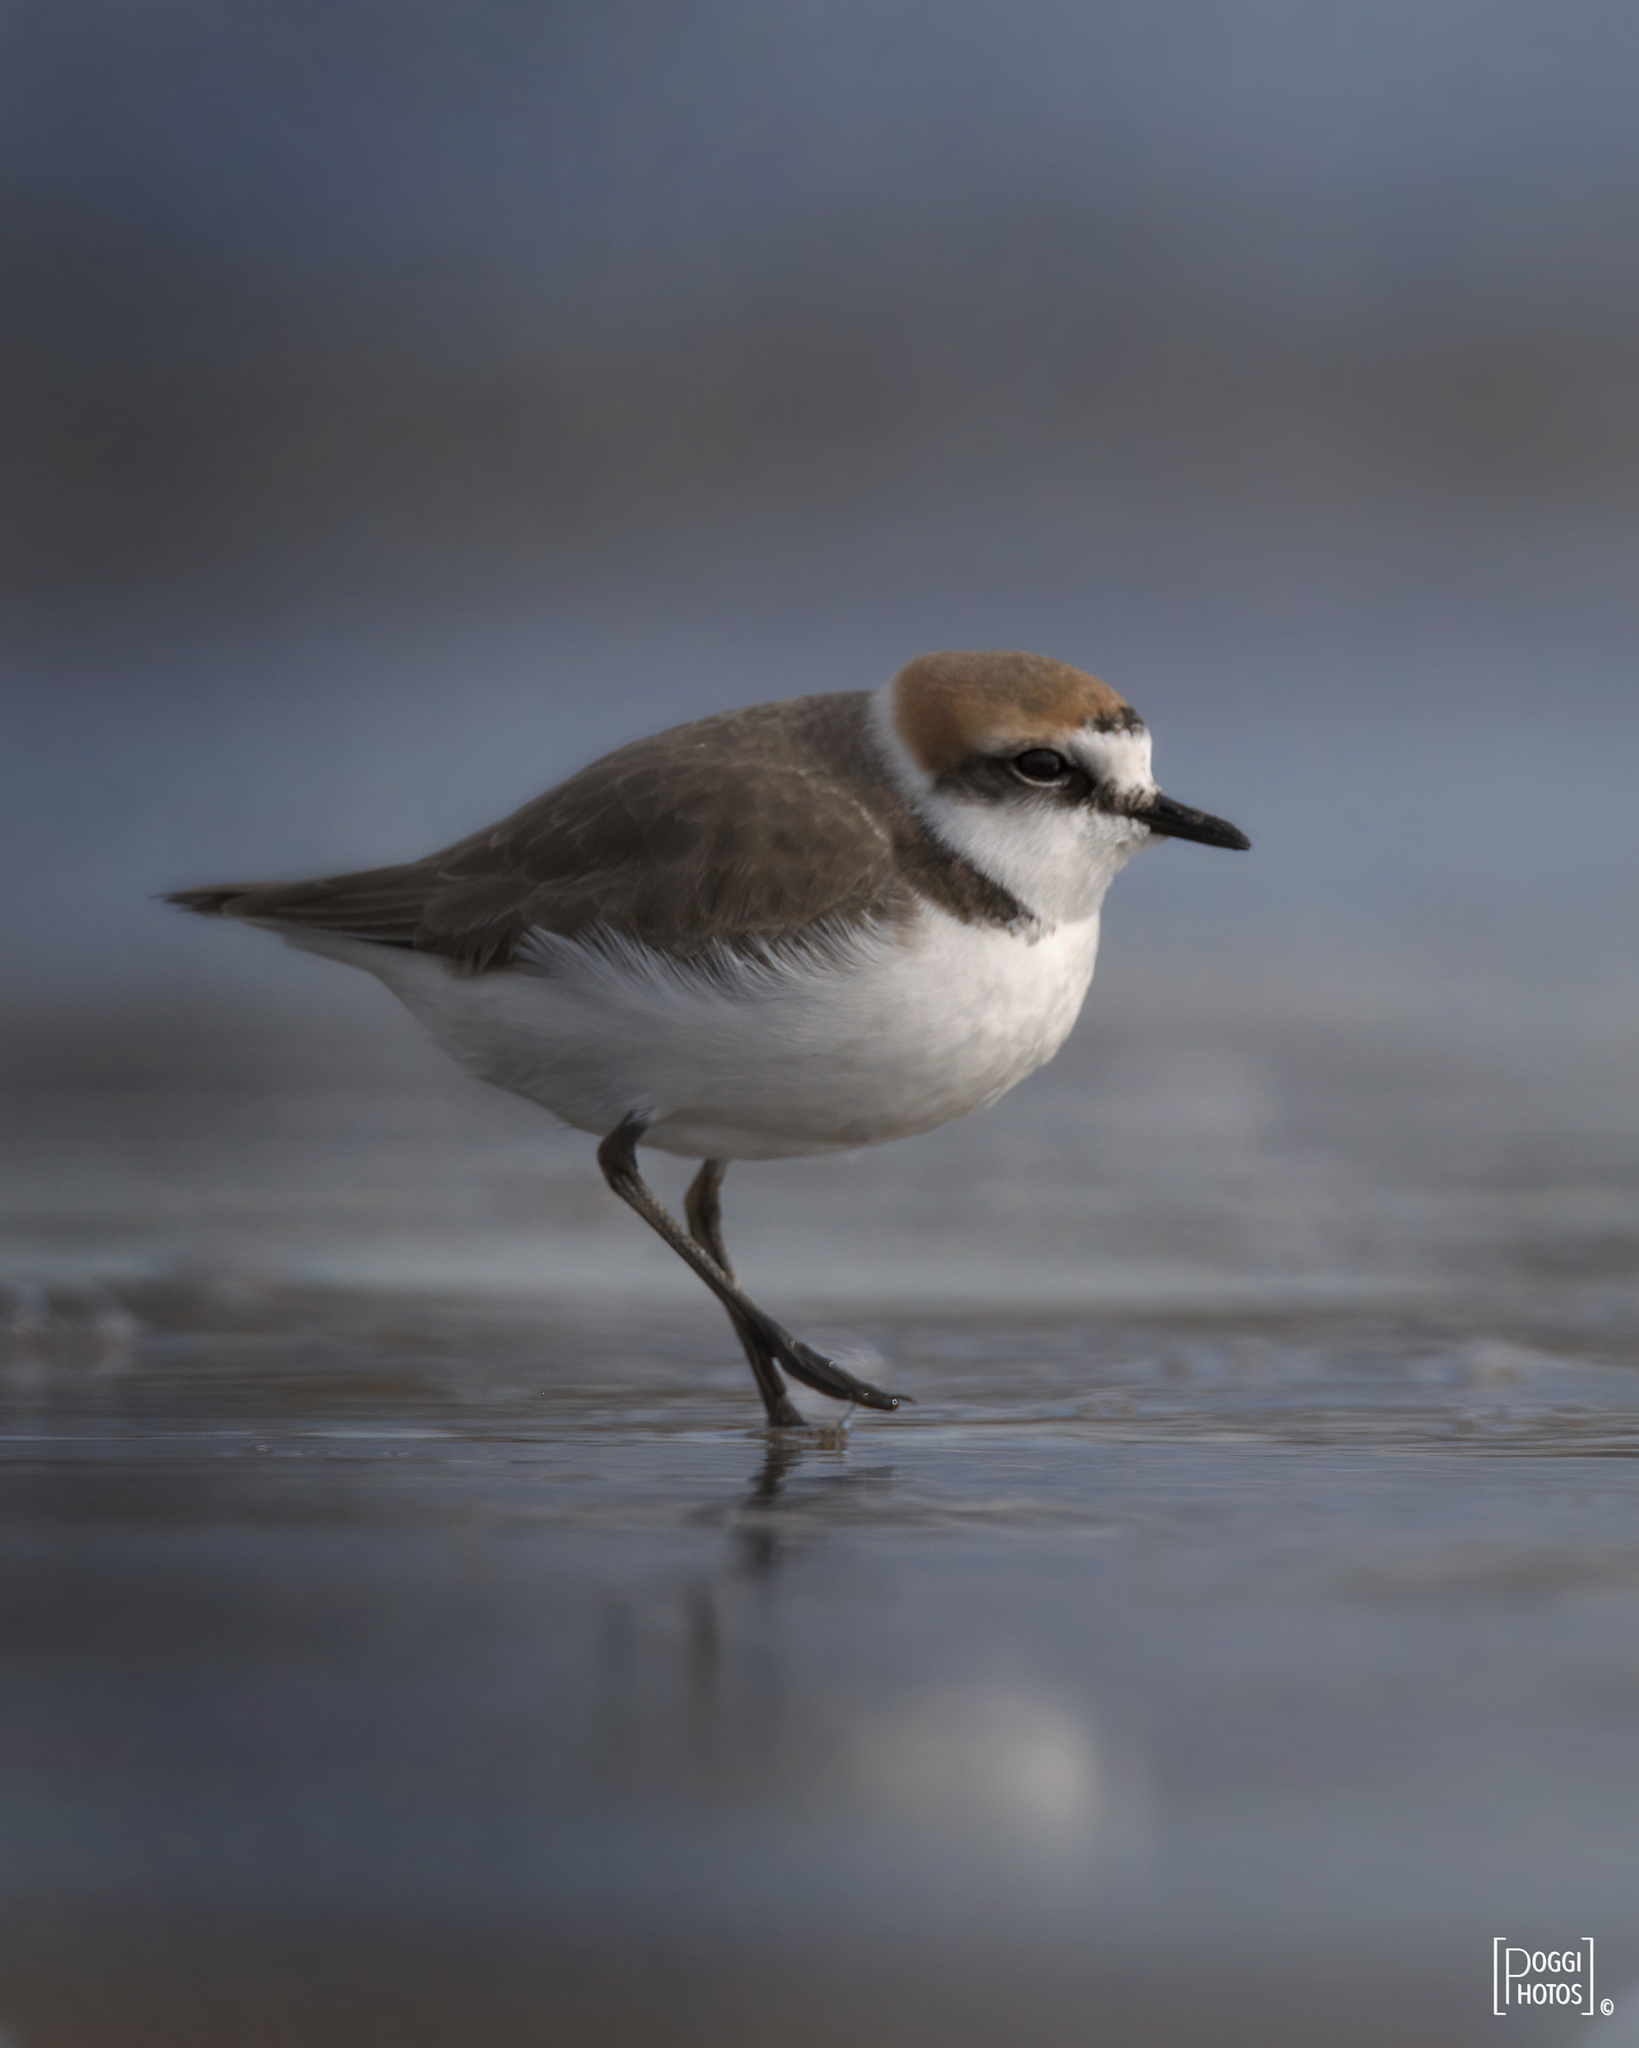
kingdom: Animalia
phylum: Chordata
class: Aves
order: Charadriiformes
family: Charadriidae
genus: Charadrius
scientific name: Charadrius alexandrinus
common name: Kentish plover
